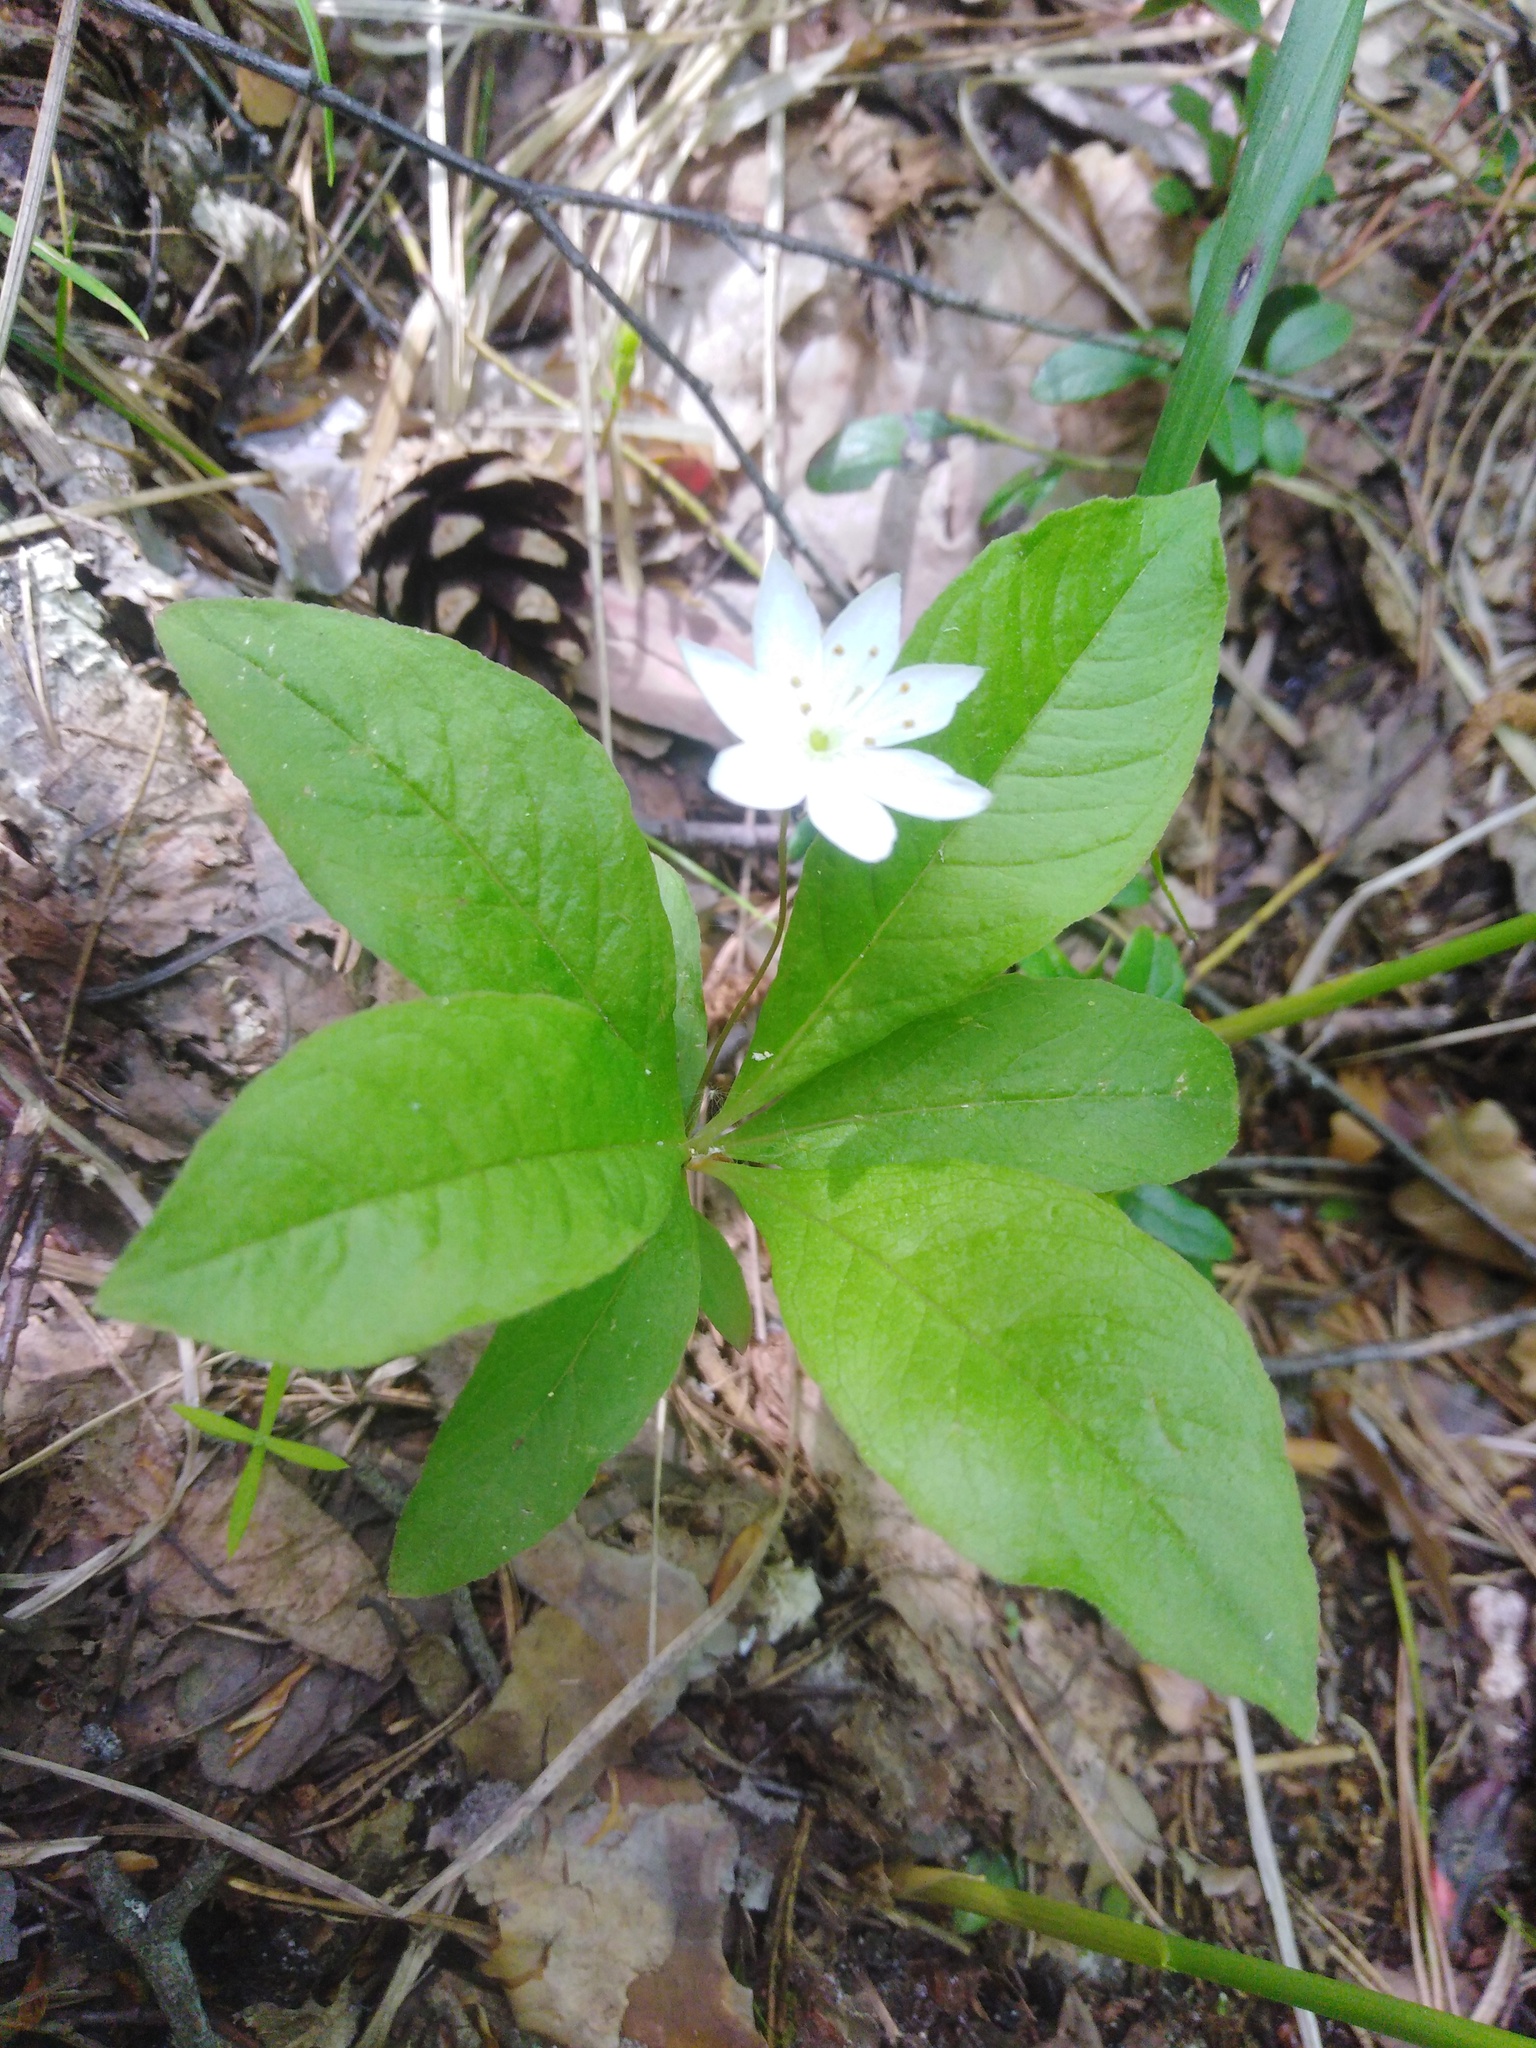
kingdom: Plantae
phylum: Tracheophyta
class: Magnoliopsida
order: Ericales
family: Primulaceae
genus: Lysimachia
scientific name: Lysimachia europaea
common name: Arctic starflower
